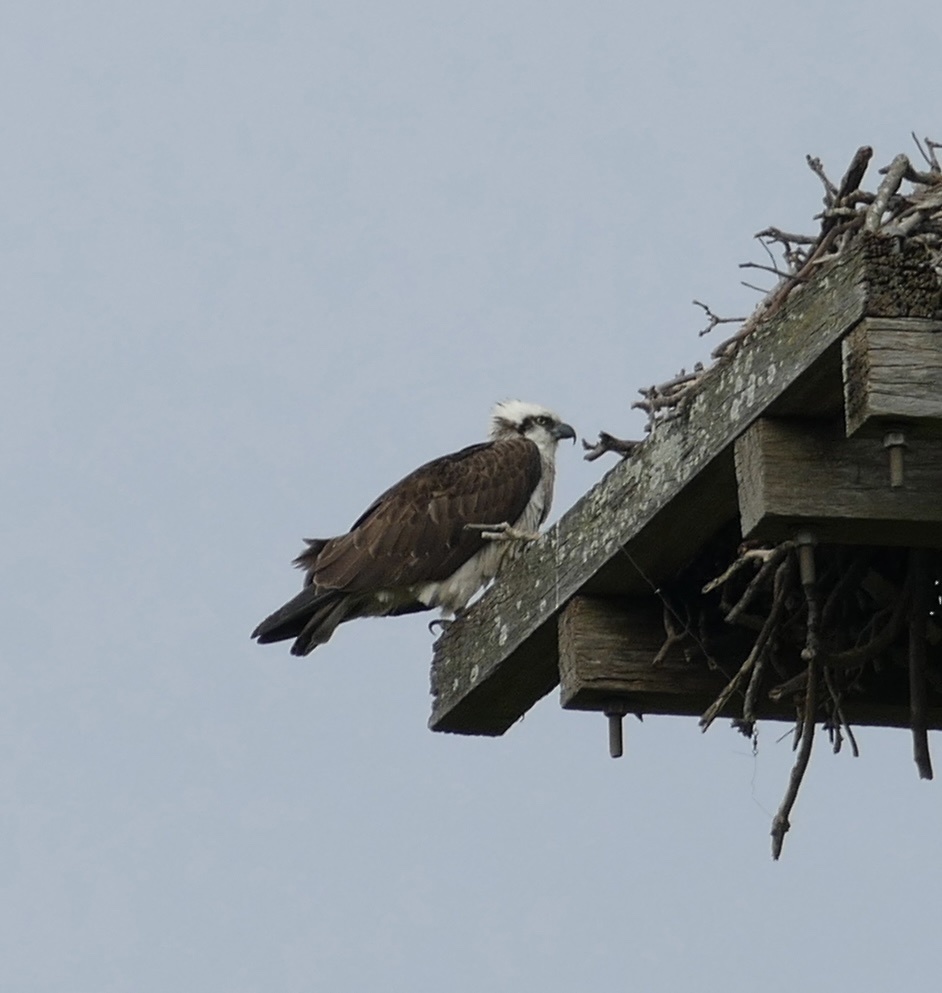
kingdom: Animalia
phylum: Chordata
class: Aves
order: Accipitriformes
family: Pandionidae
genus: Pandion
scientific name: Pandion haliaetus
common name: Osprey
